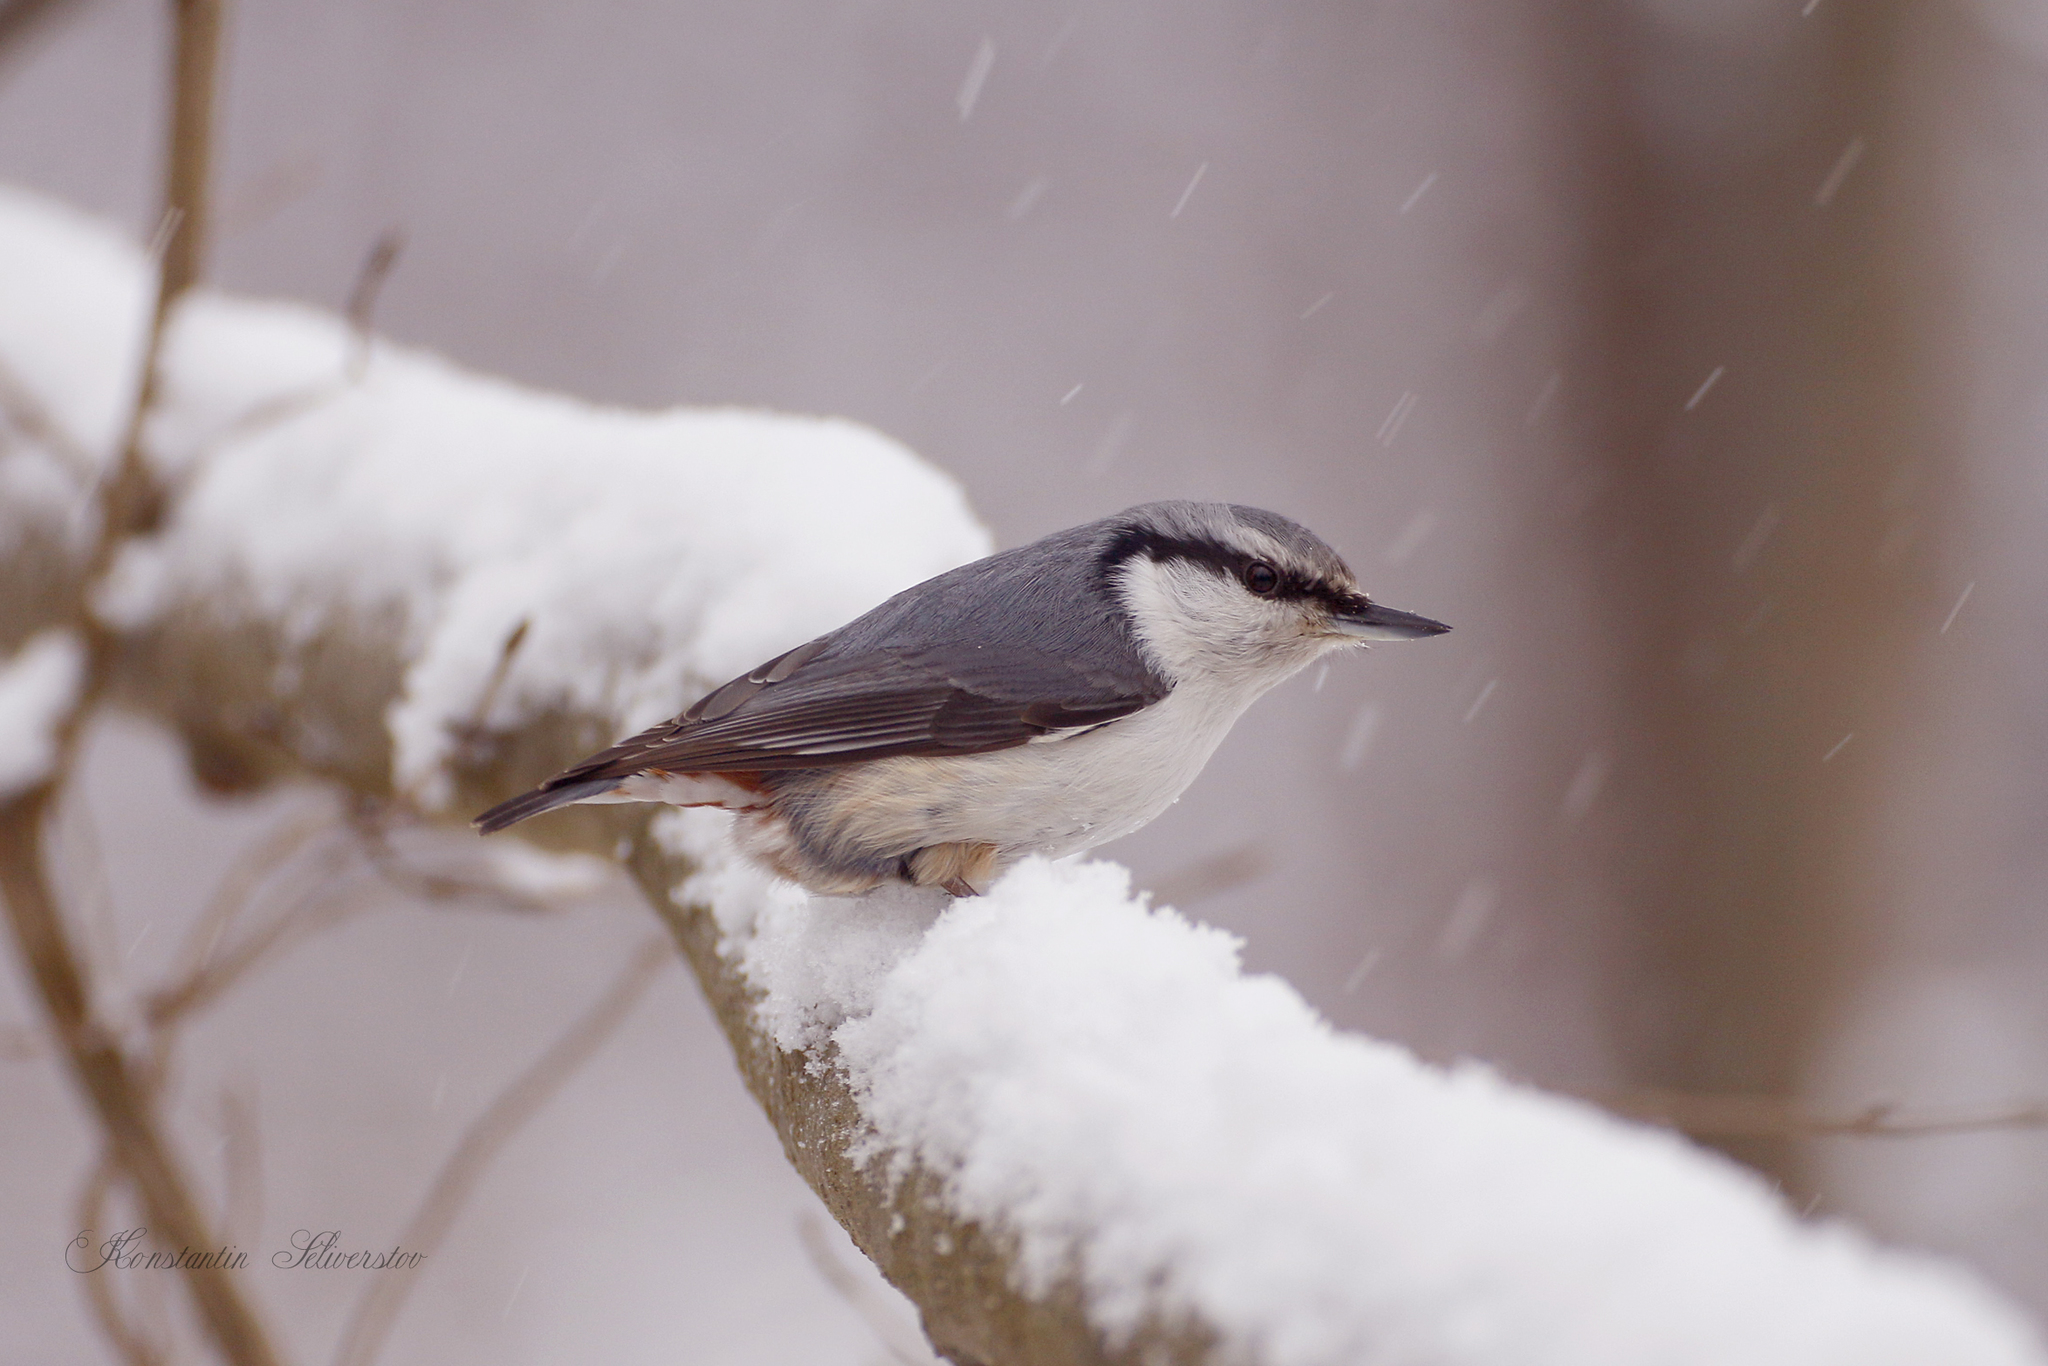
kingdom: Animalia
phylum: Chordata
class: Aves
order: Passeriformes
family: Sittidae
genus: Sitta
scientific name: Sitta europaea
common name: Eurasian nuthatch
